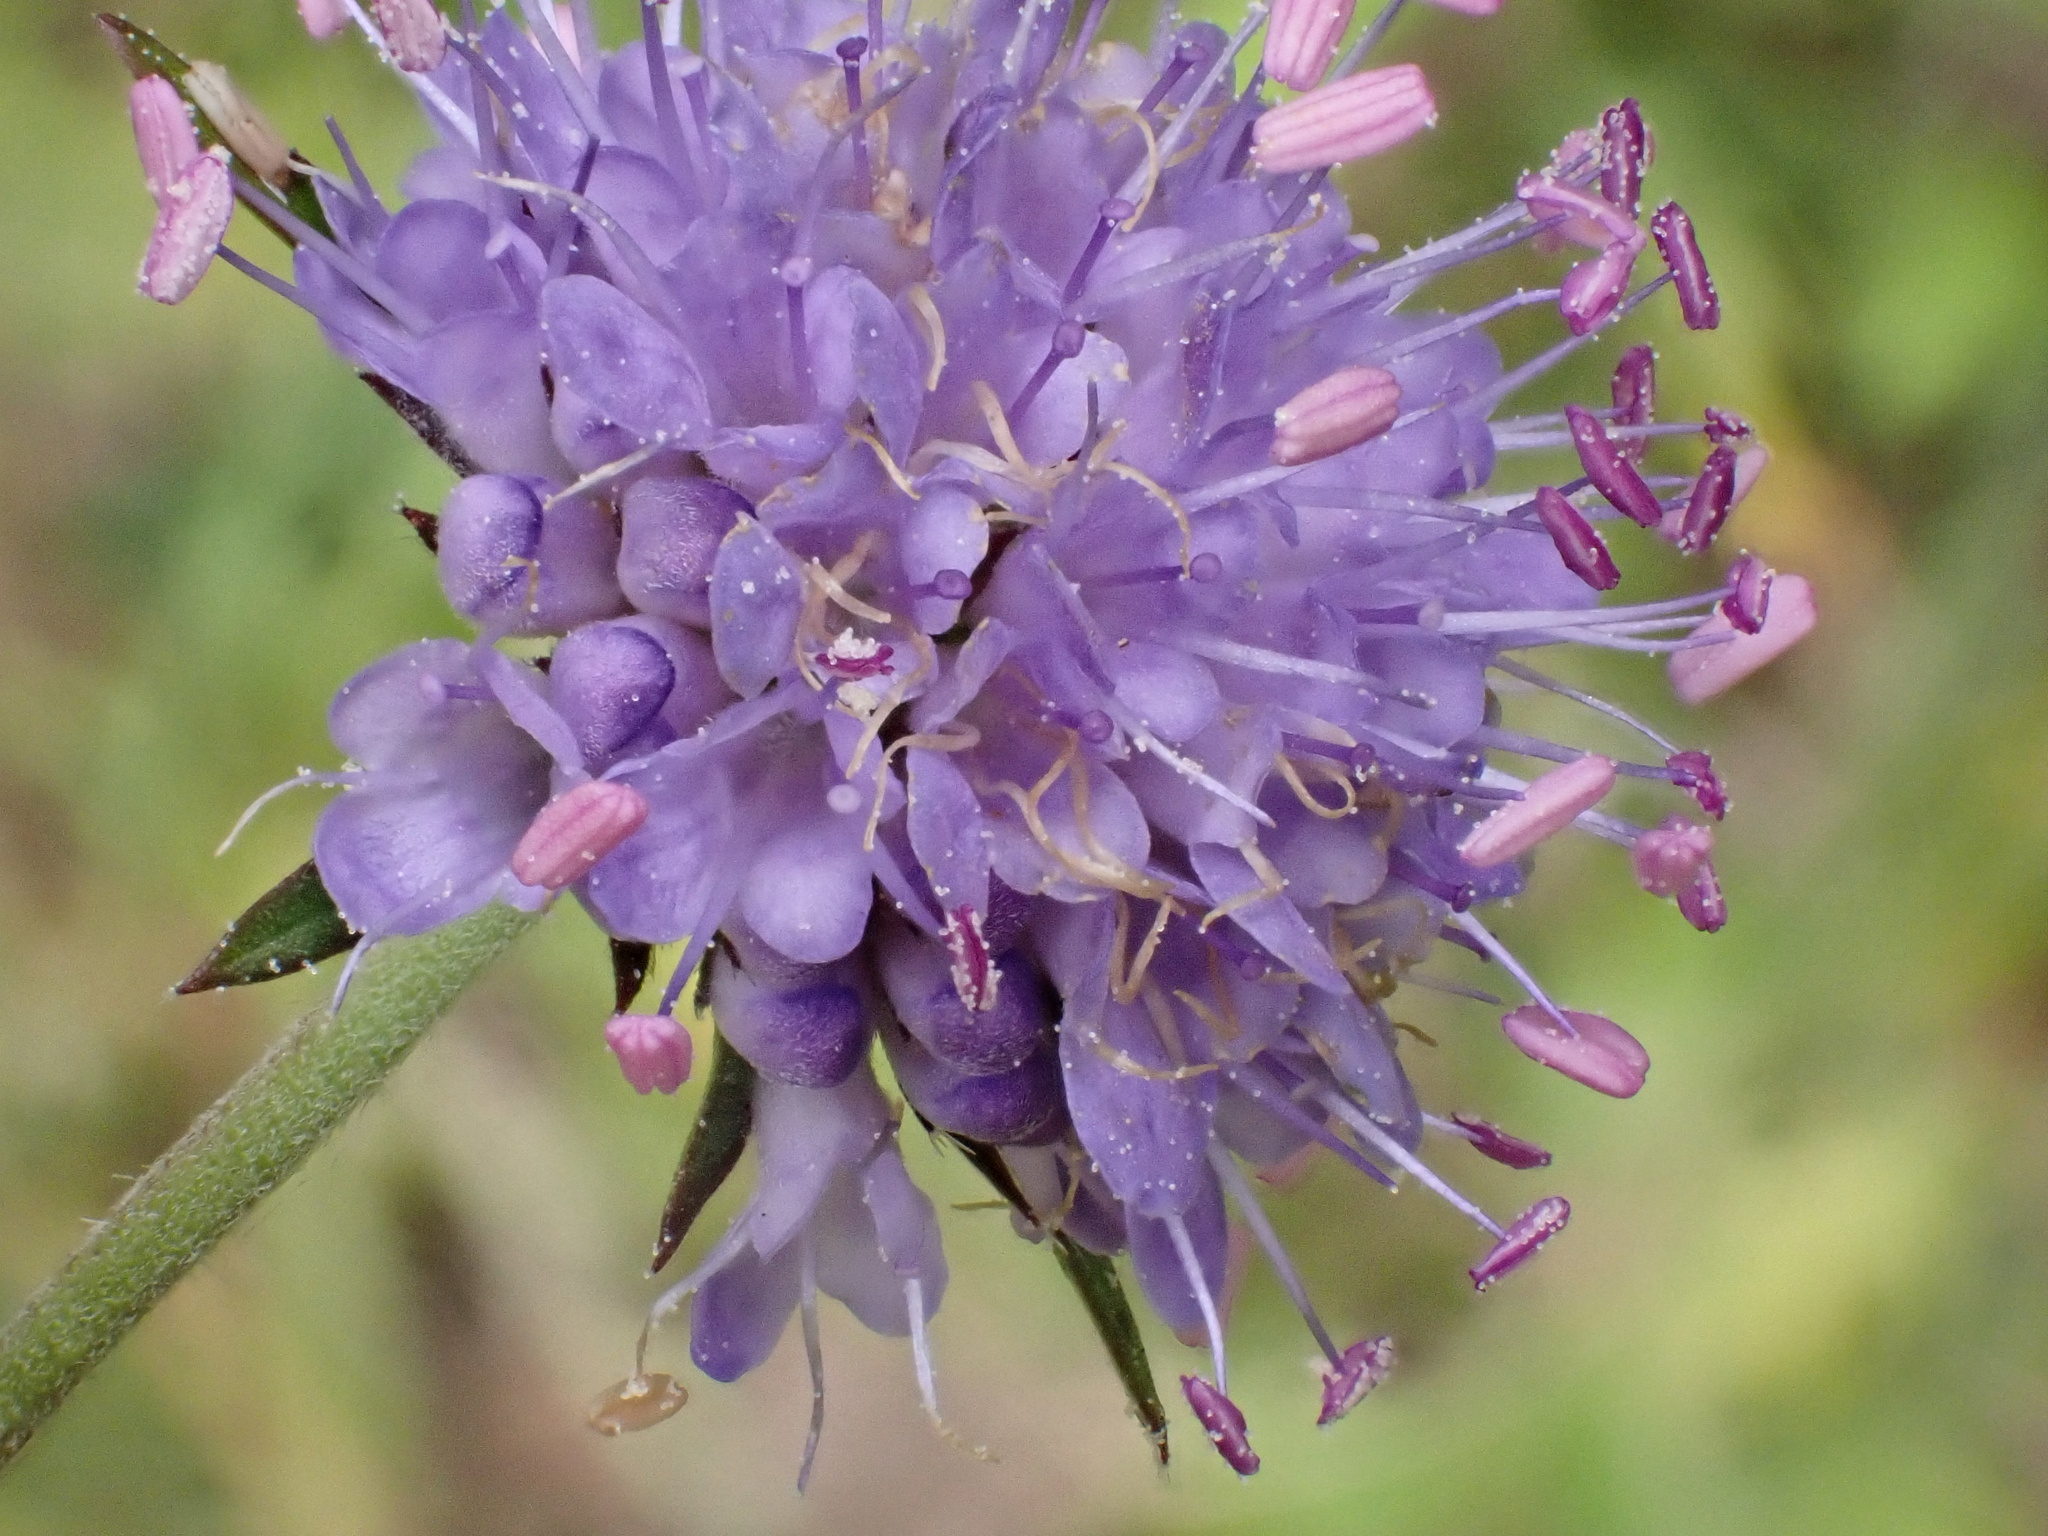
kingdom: Plantae
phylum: Tracheophyta
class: Magnoliopsida
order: Dipsacales
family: Caprifoliaceae
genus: Succisa
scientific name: Succisa pratensis
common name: Devil's-bit
